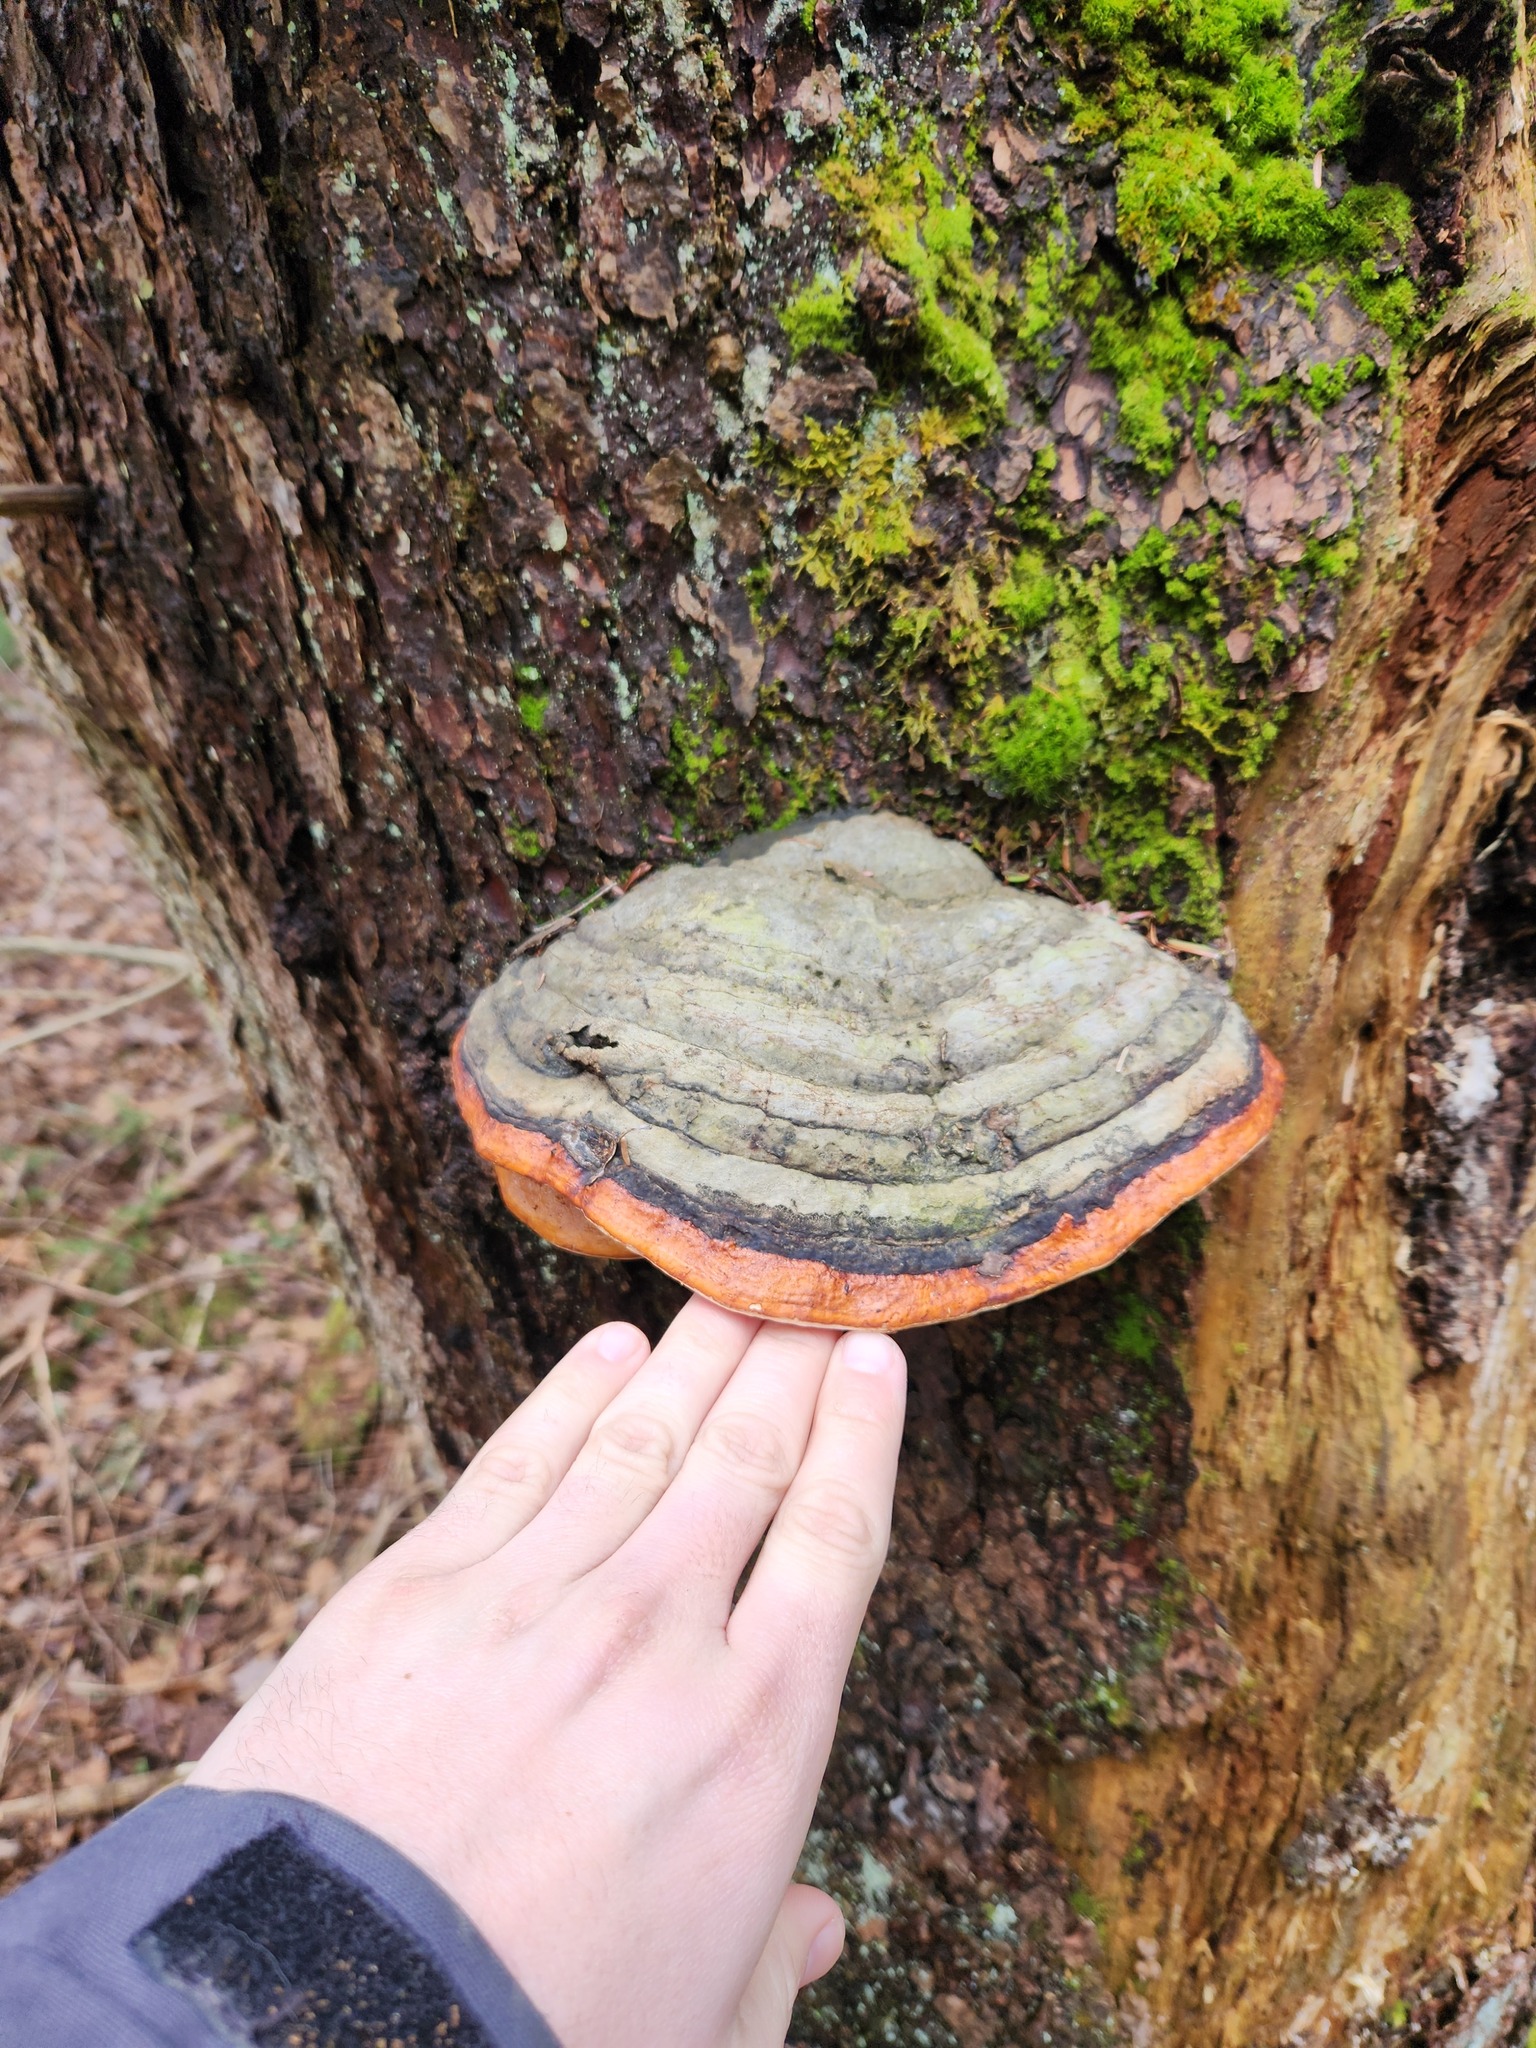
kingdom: Fungi
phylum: Basidiomycota
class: Agaricomycetes
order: Polyporales
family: Fomitopsidaceae
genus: Fomitopsis
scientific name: Fomitopsis mounceae
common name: Northern red belt
